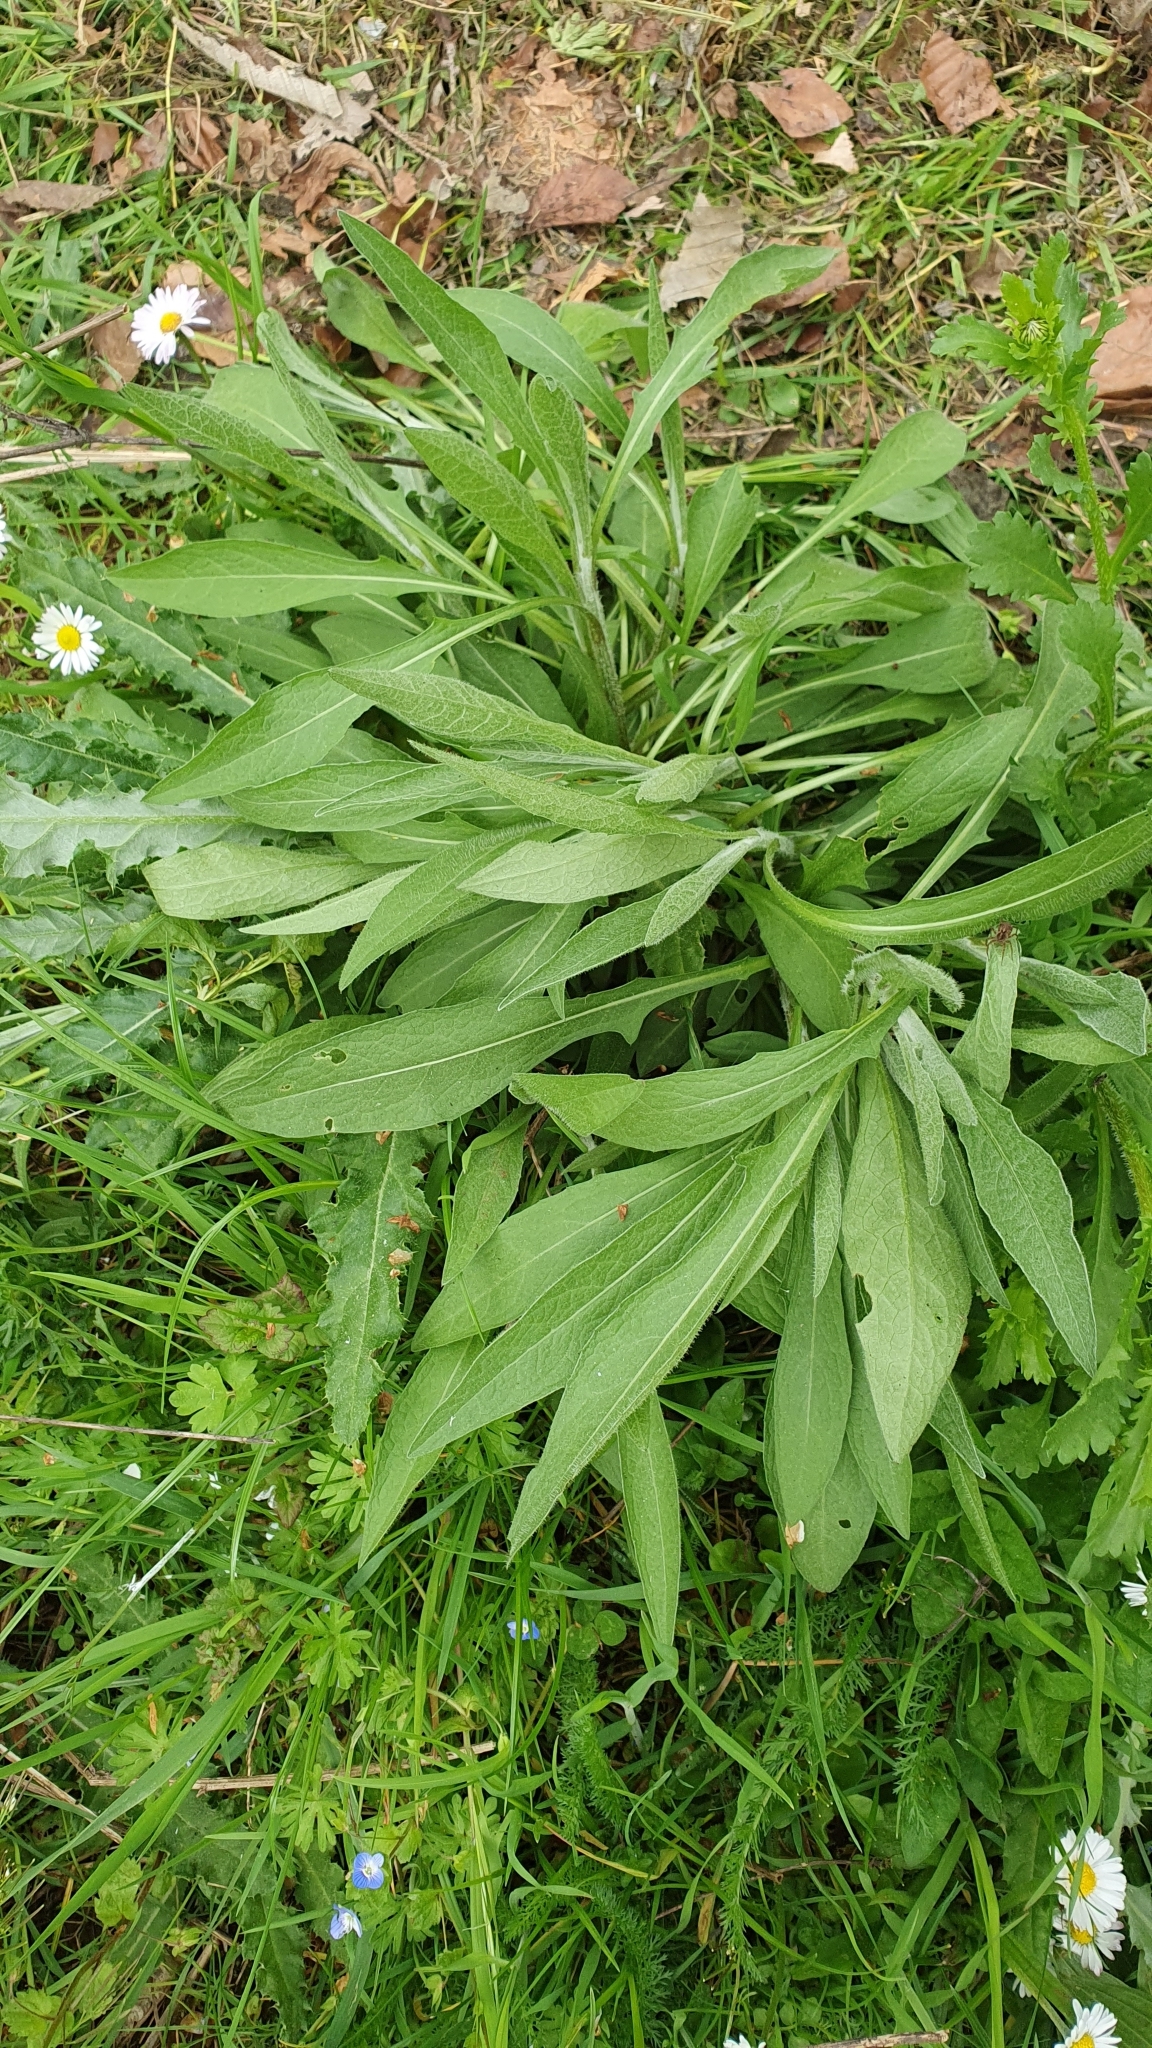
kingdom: Plantae
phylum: Tracheophyta
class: Magnoliopsida
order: Asterales
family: Asteraceae
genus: Centaurea
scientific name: Centaurea jacea
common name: Brown knapweed
